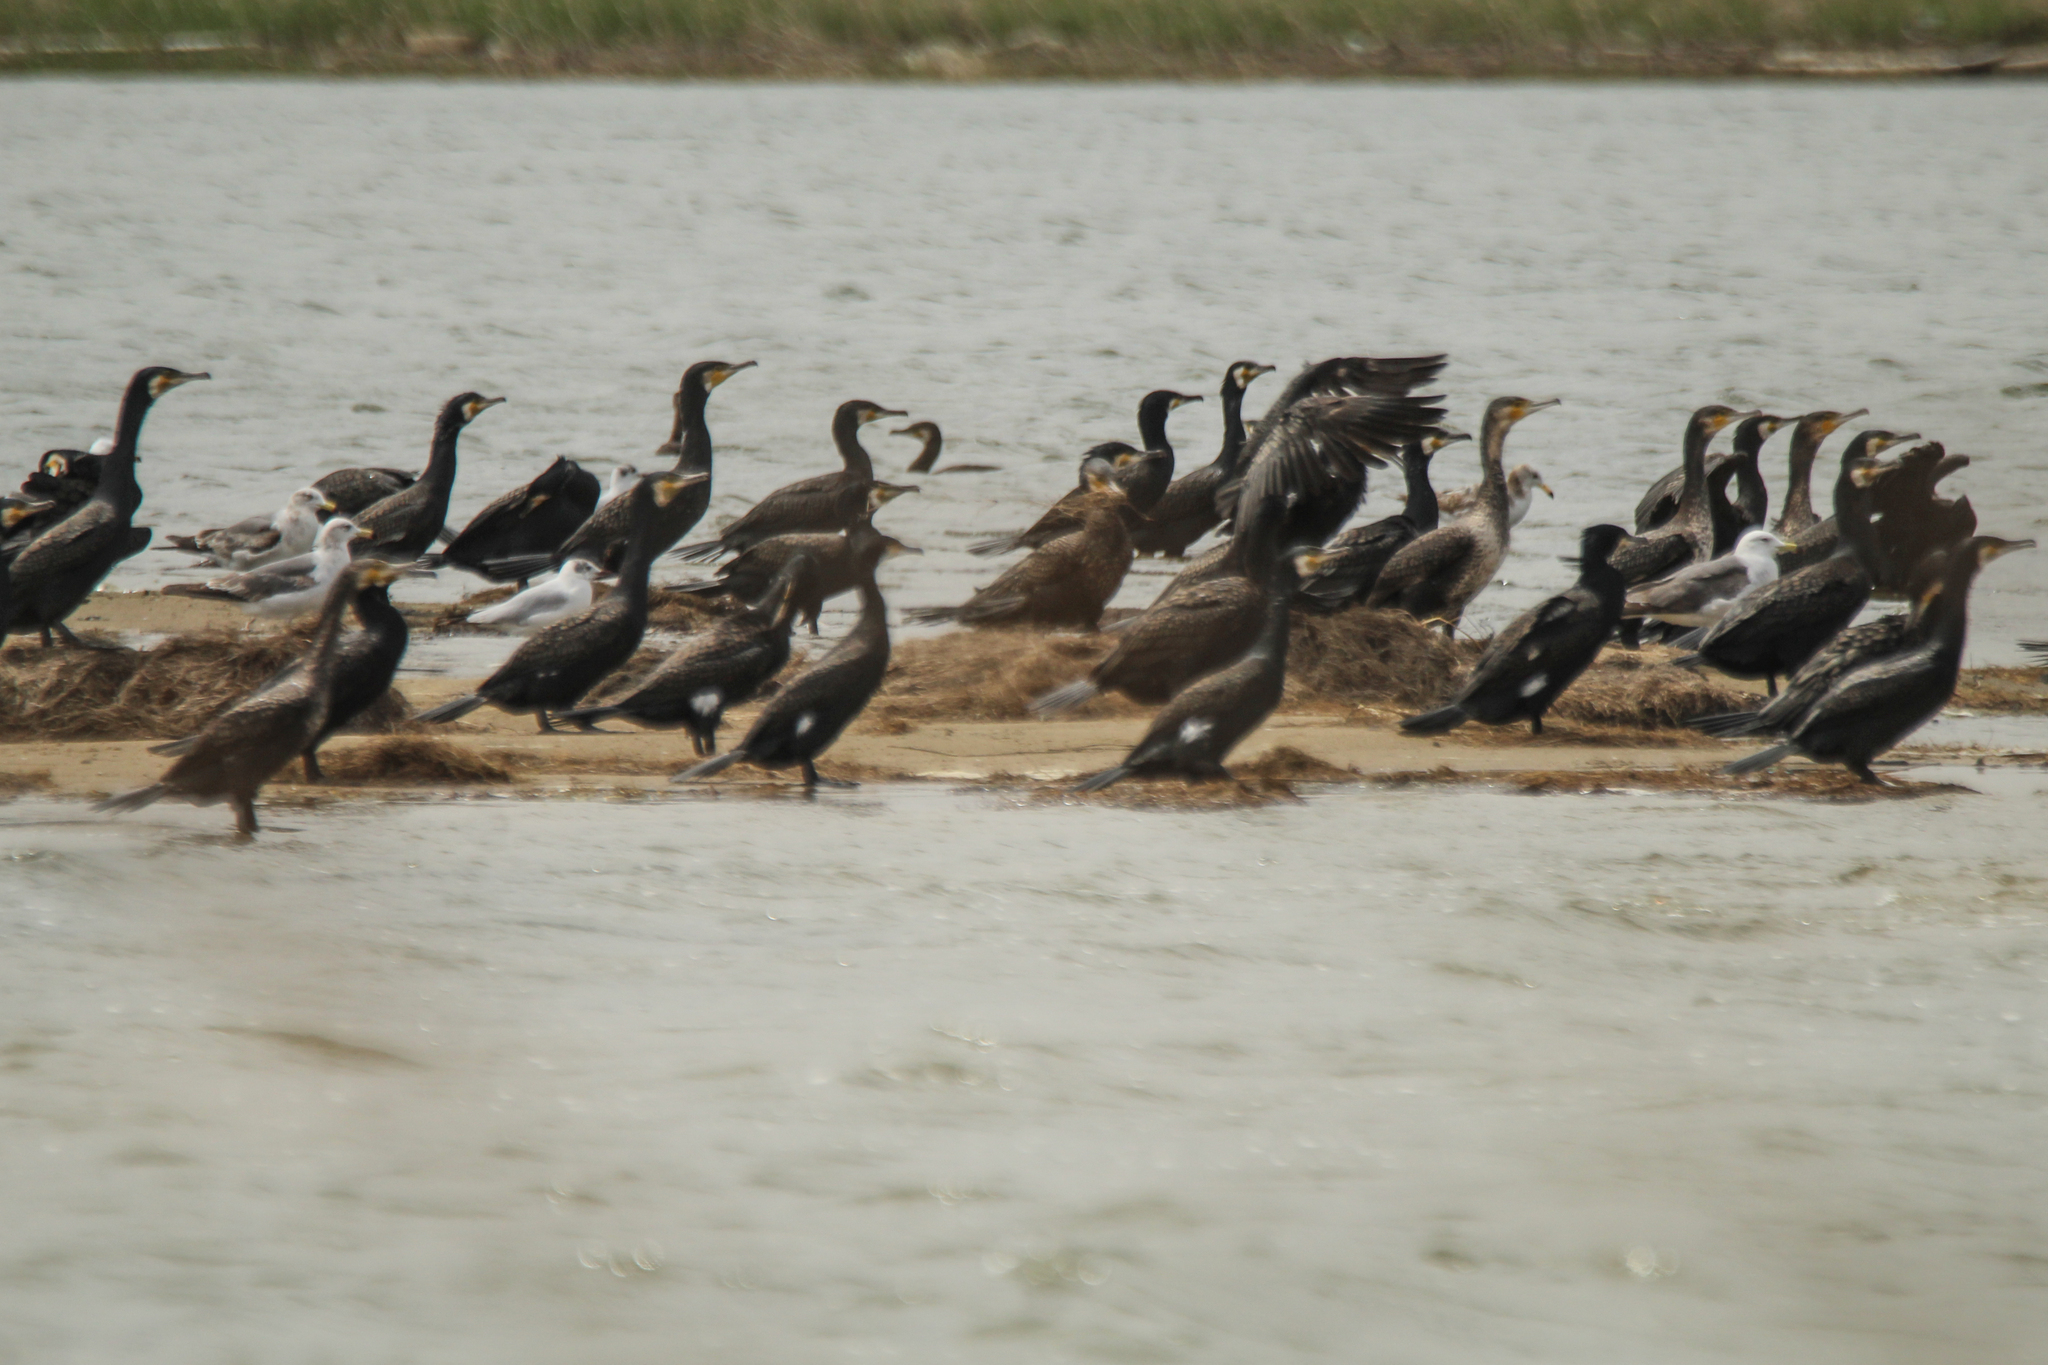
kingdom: Animalia
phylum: Chordata
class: Aves
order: Suliformes
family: Phalacrocoracidae
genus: Phalacrocorax
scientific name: Phalacrocorax carbo
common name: Great cormorant
